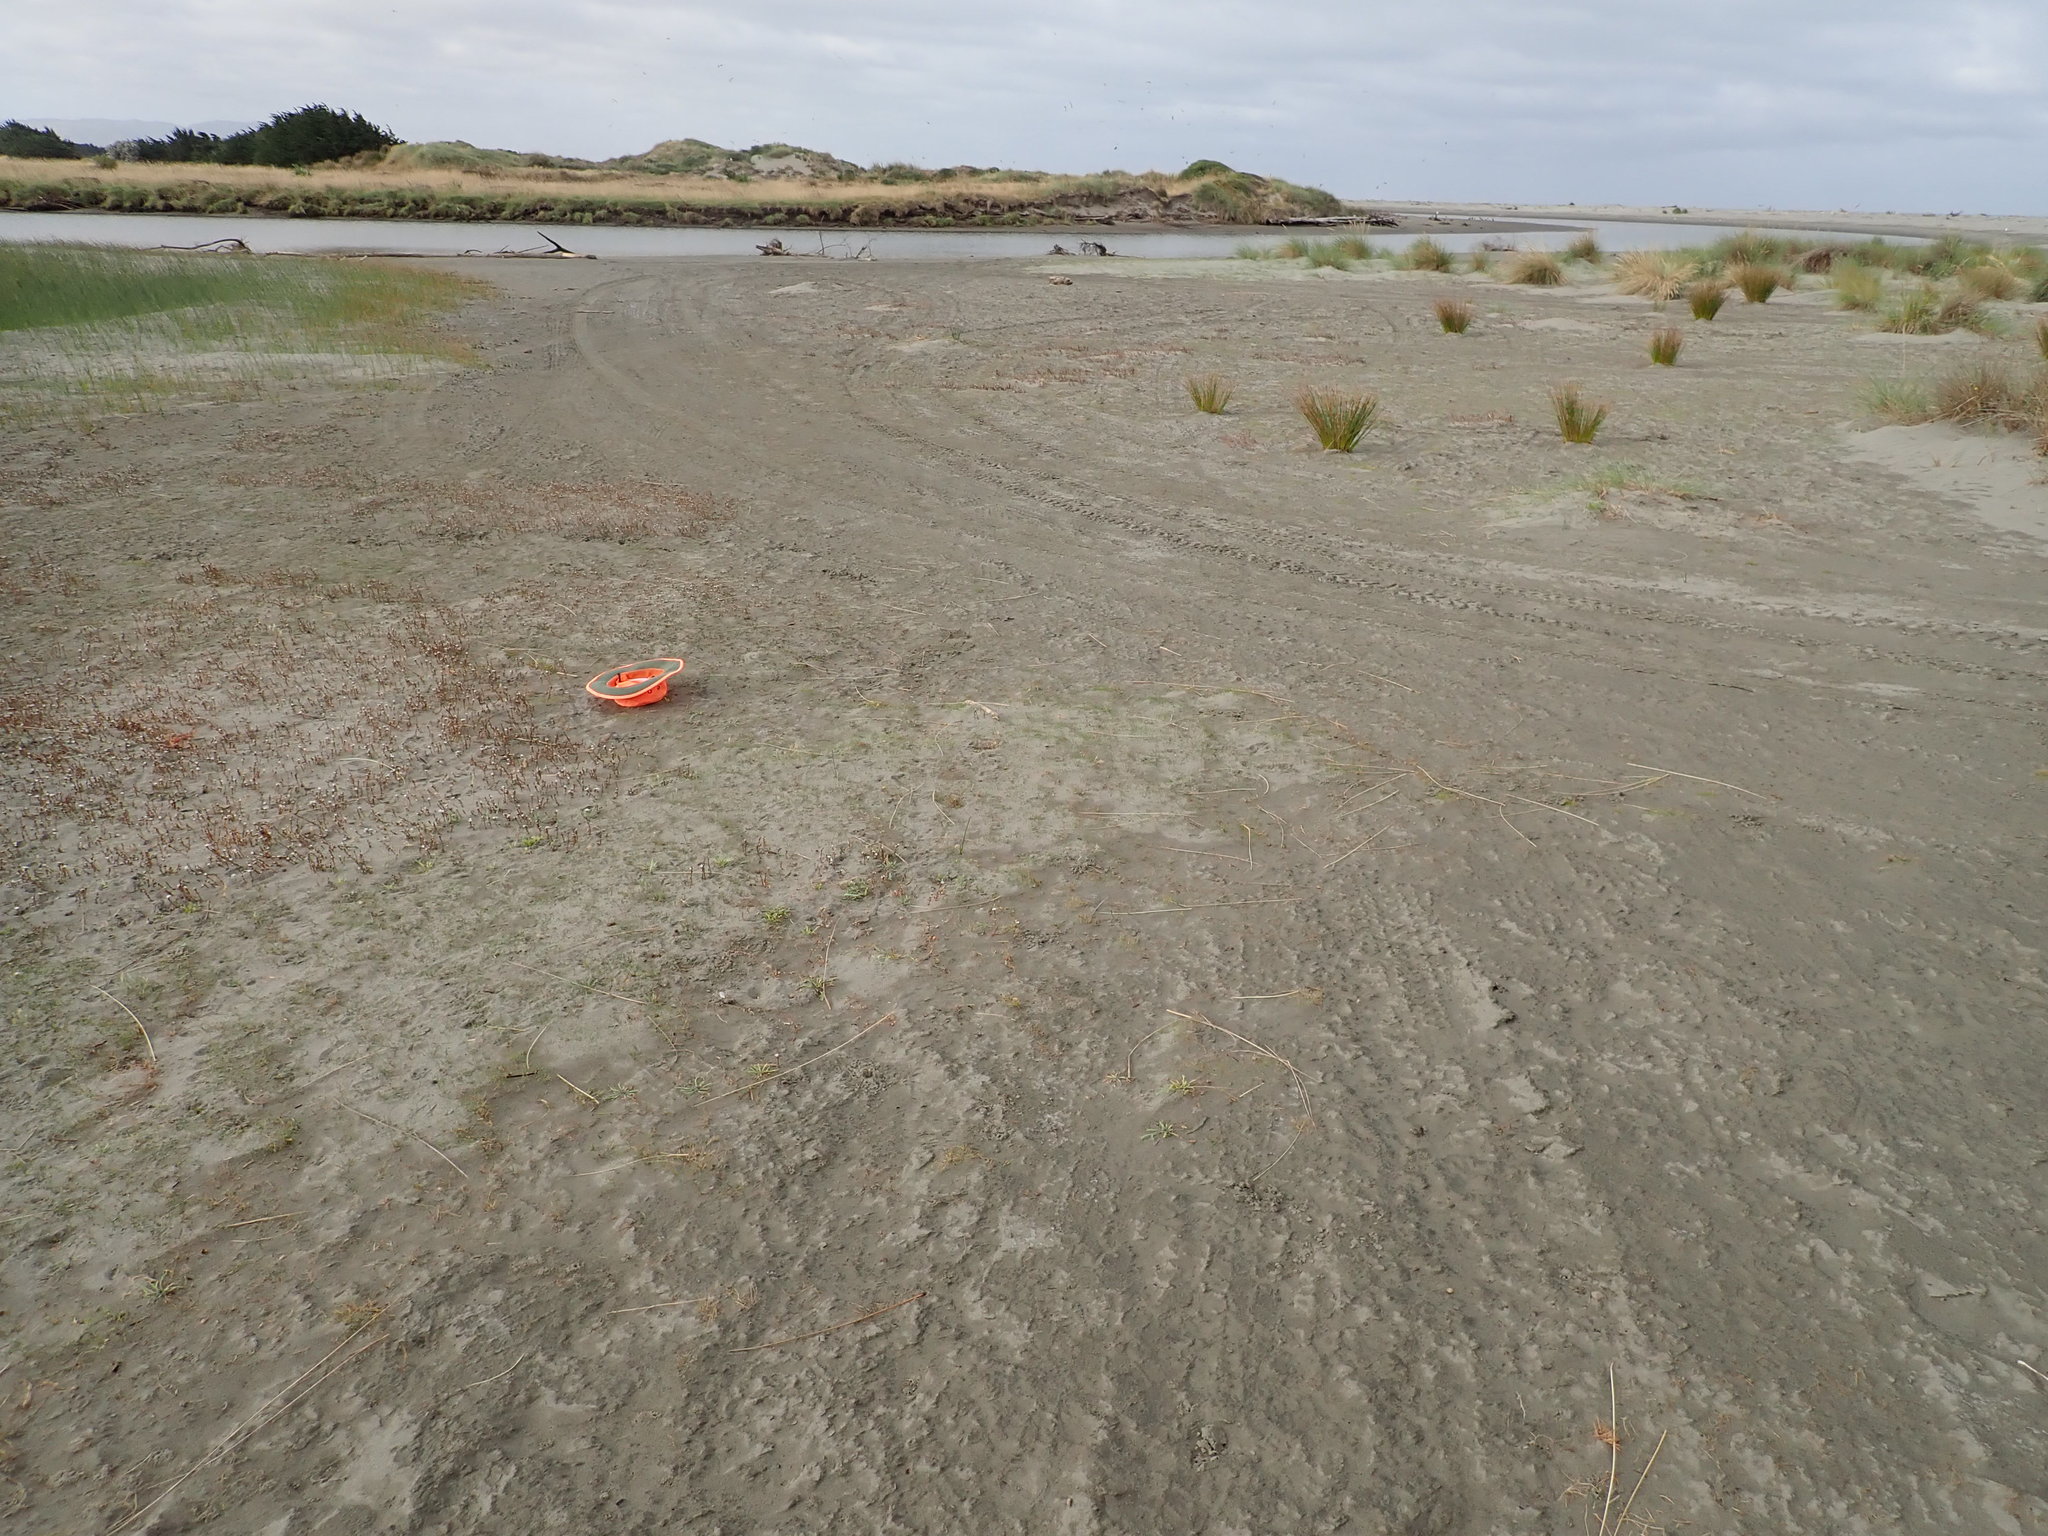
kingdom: Plantae
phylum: Tracheophyta
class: Magnoliopsida
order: Asterales
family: Asteraceae
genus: Cotula
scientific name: Cotula coronopifolia
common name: Buttonweed
